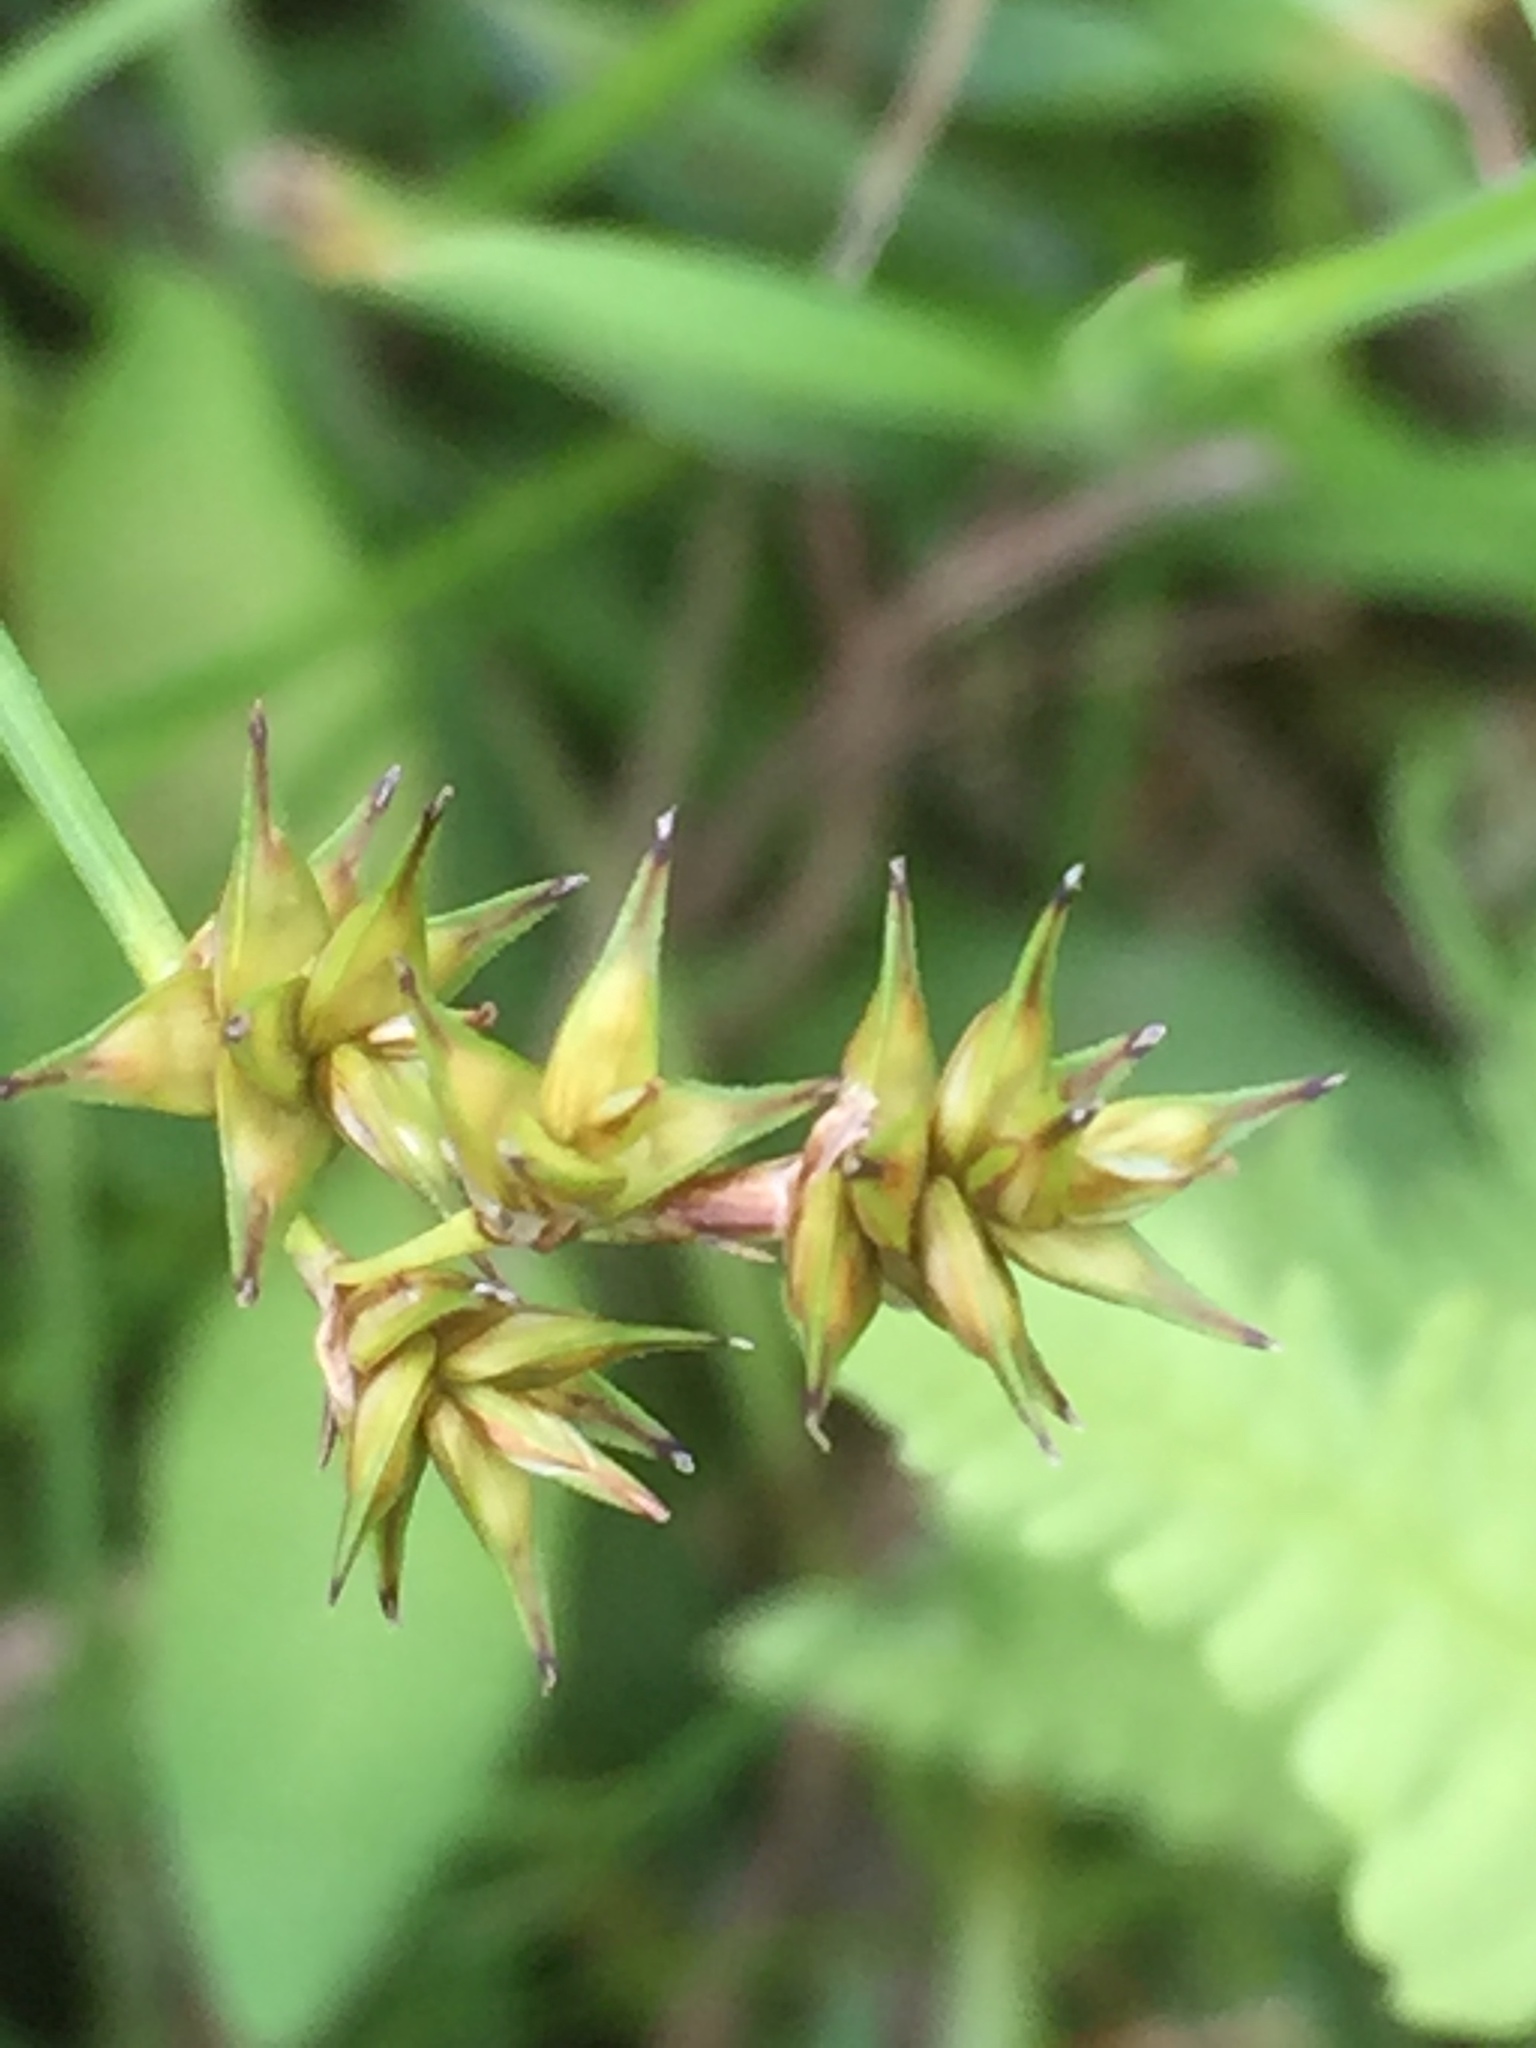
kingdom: Plantae
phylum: Tracheophyta
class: Liliopsida
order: Poales
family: Cyperaceae
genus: Carex
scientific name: Carex echinata
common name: Star sedge
